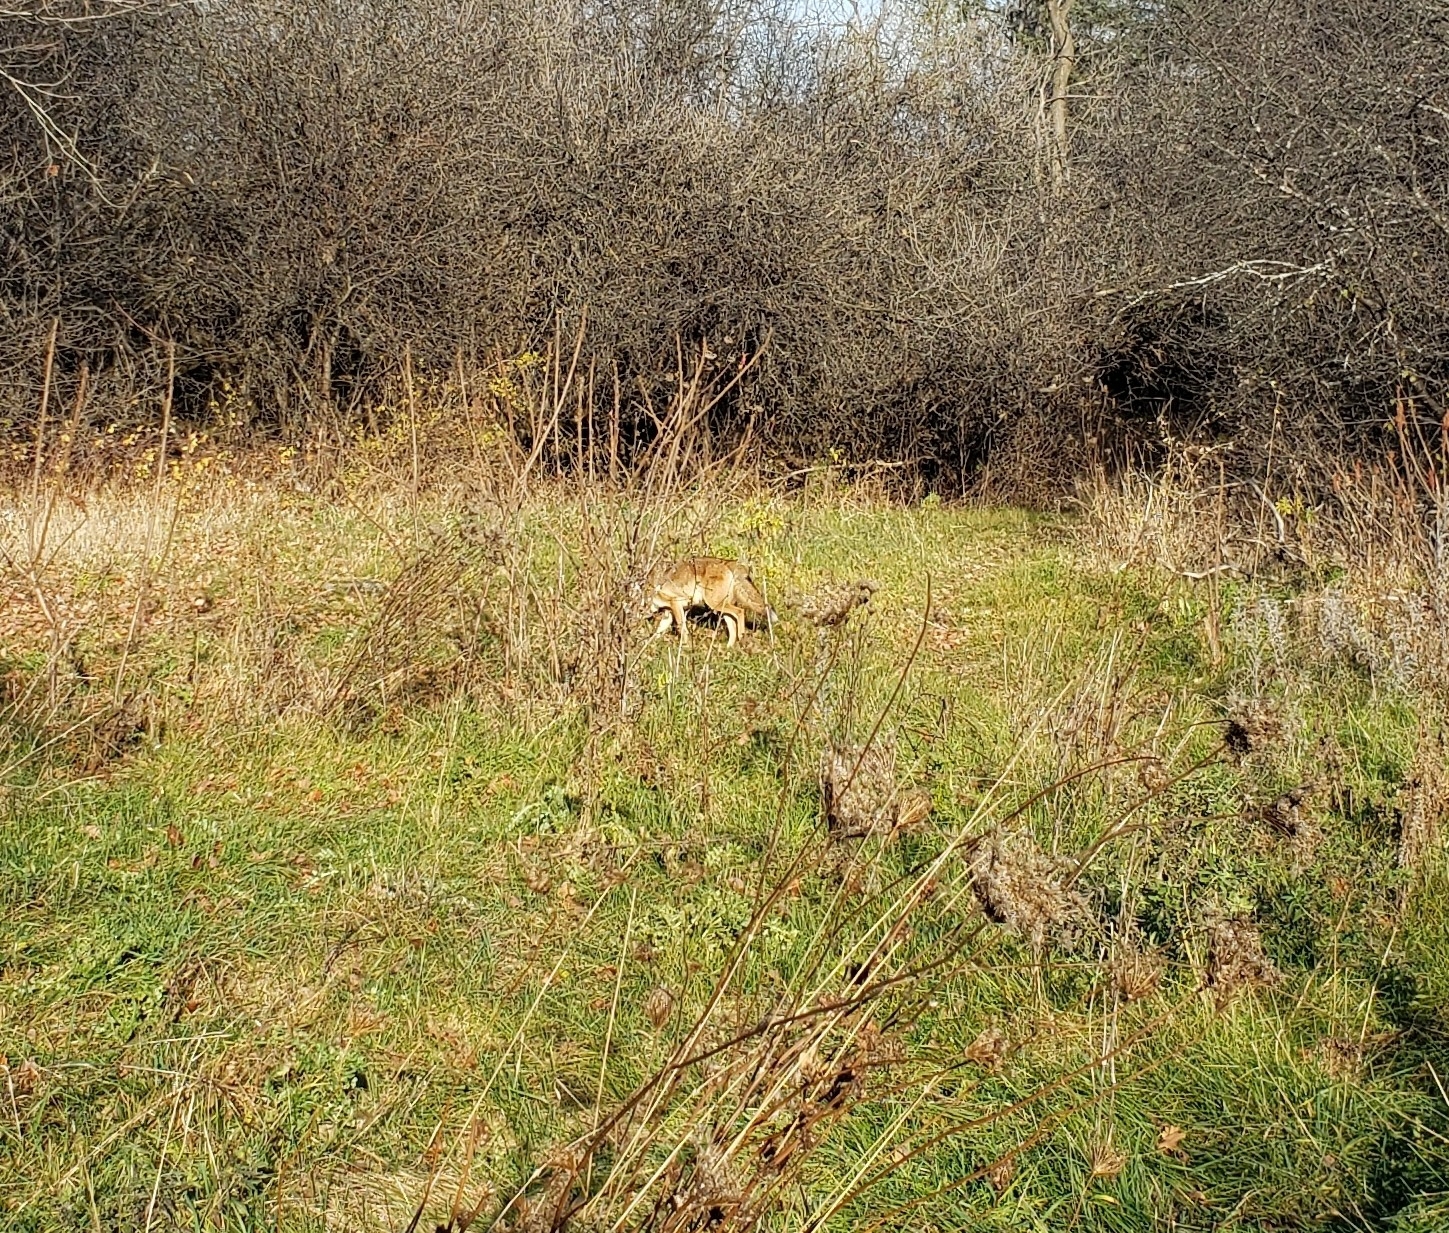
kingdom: Animalia
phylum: Chordata
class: Mammalia
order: Carnivora
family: Canidae
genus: Canis
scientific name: Canis latrans
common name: Coyote
